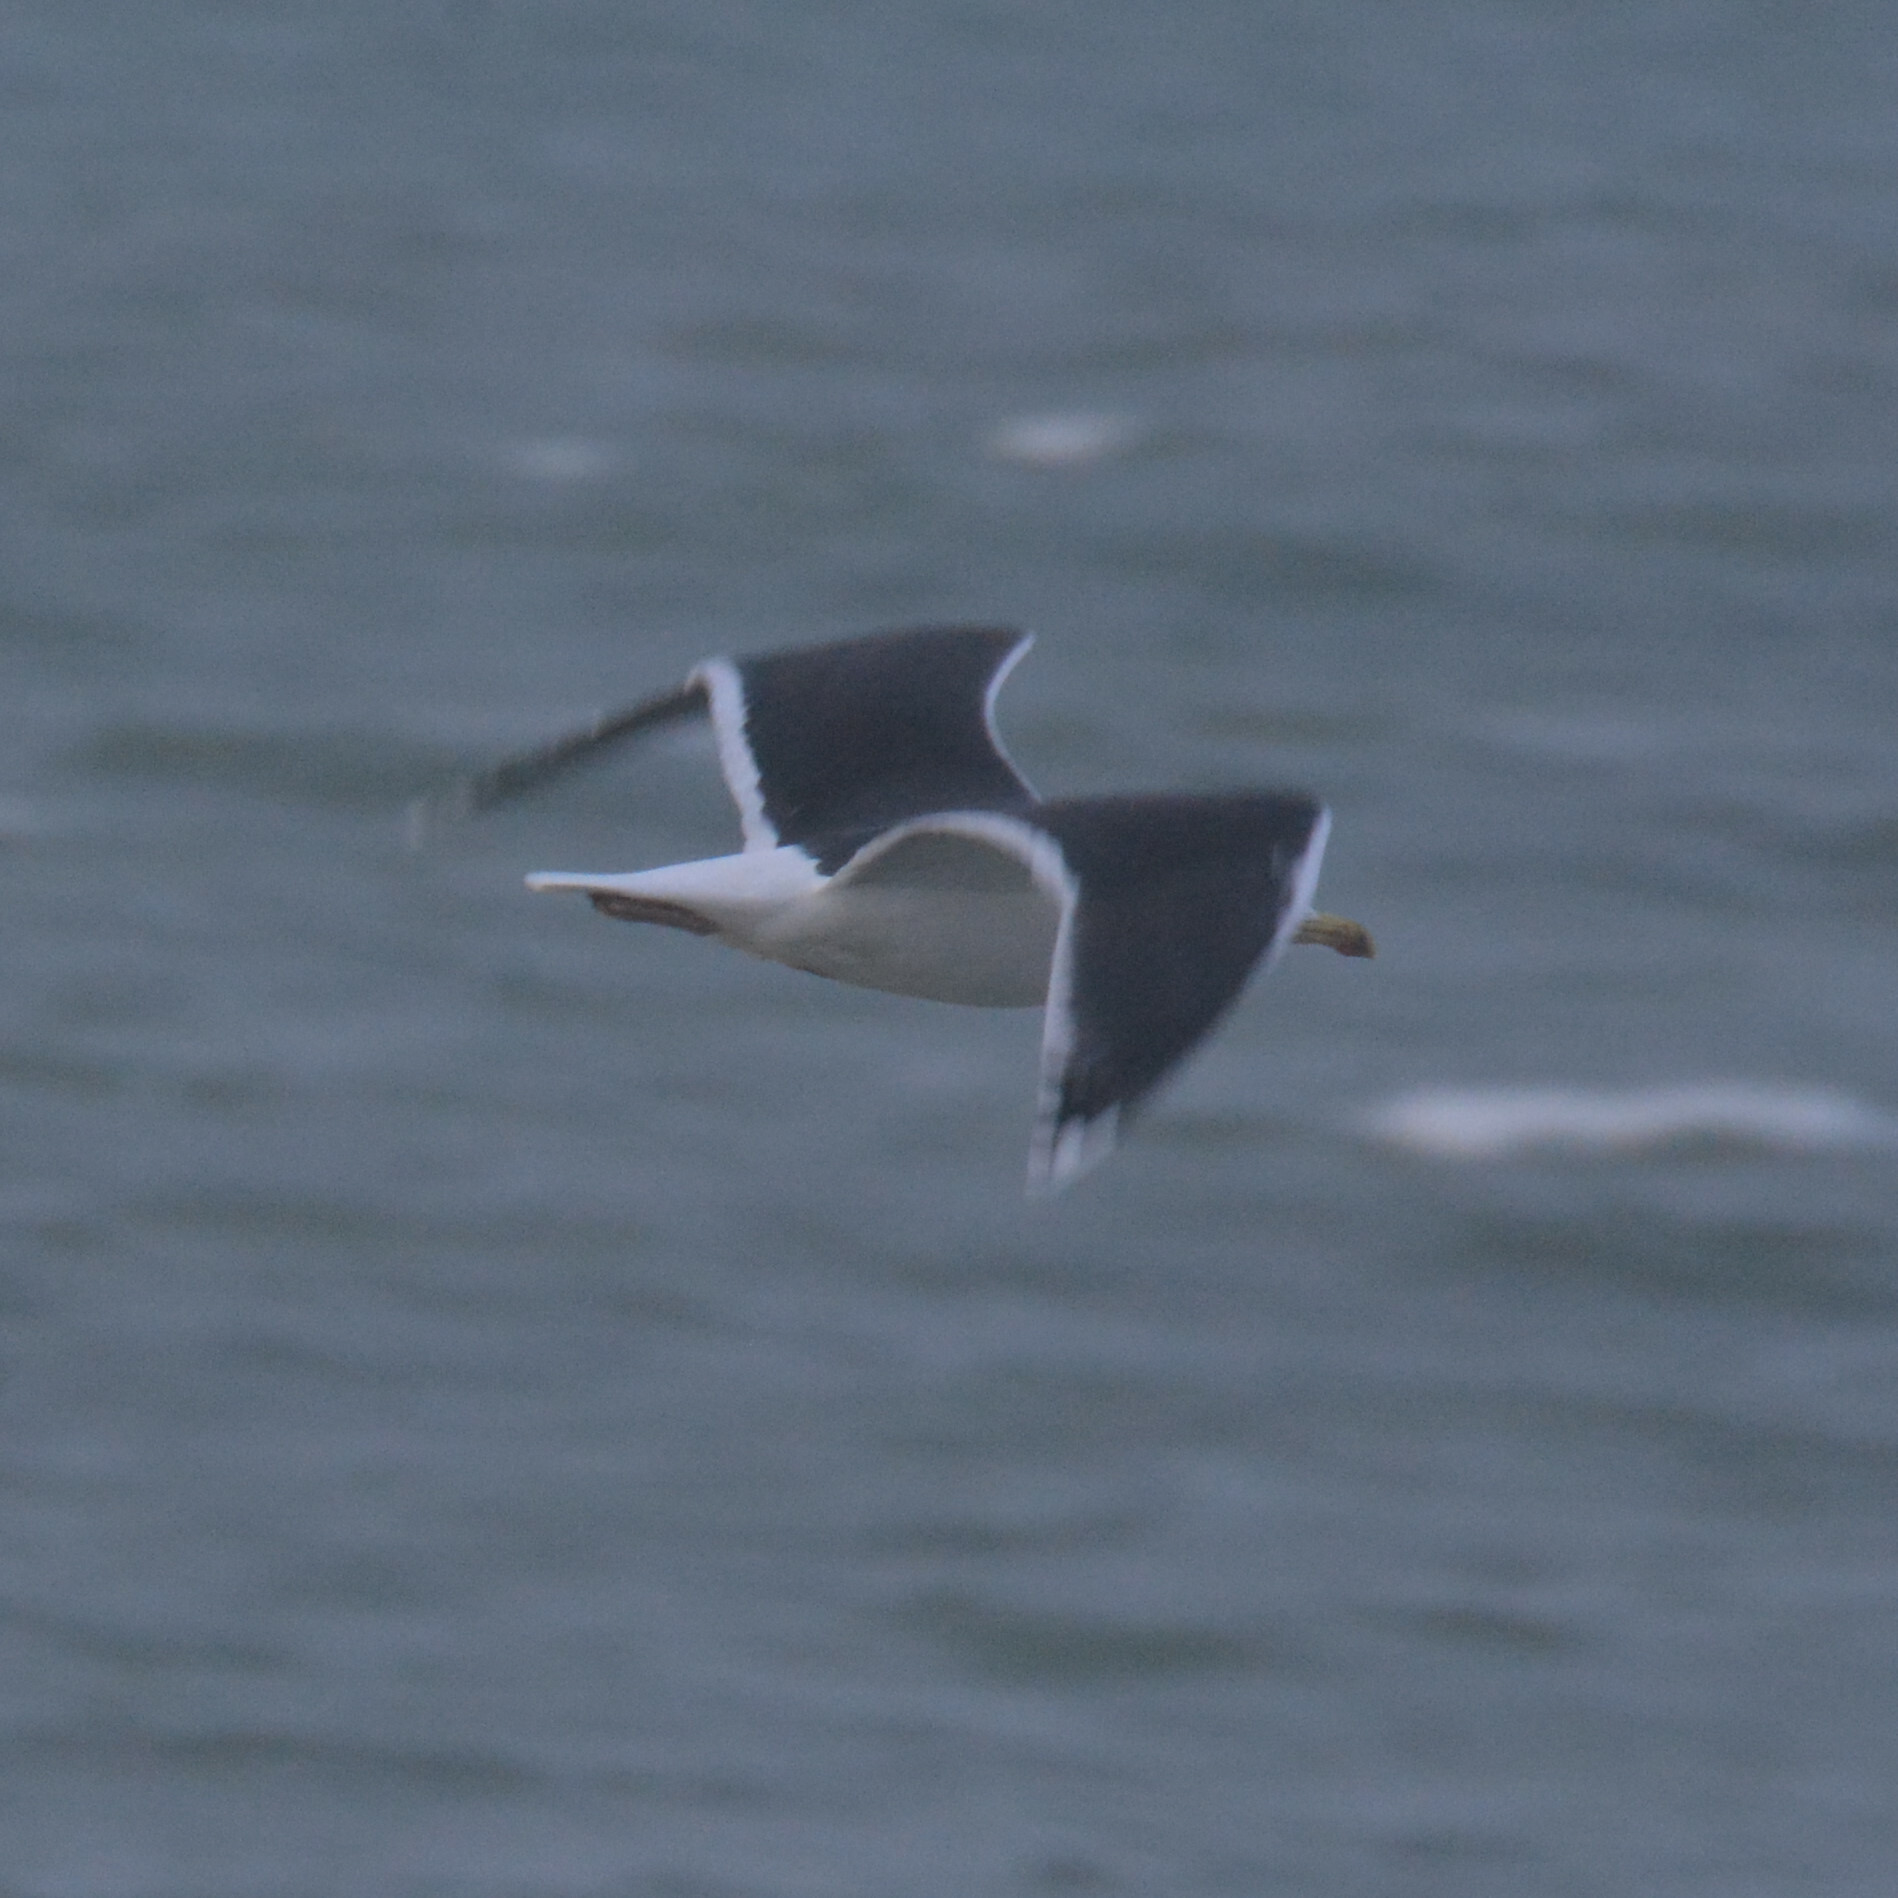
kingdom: Animalia
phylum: Chordata
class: Aves
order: Charadriiformes
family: Laridae
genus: Larus
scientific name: Larus marinus
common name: Great black-backed gull
